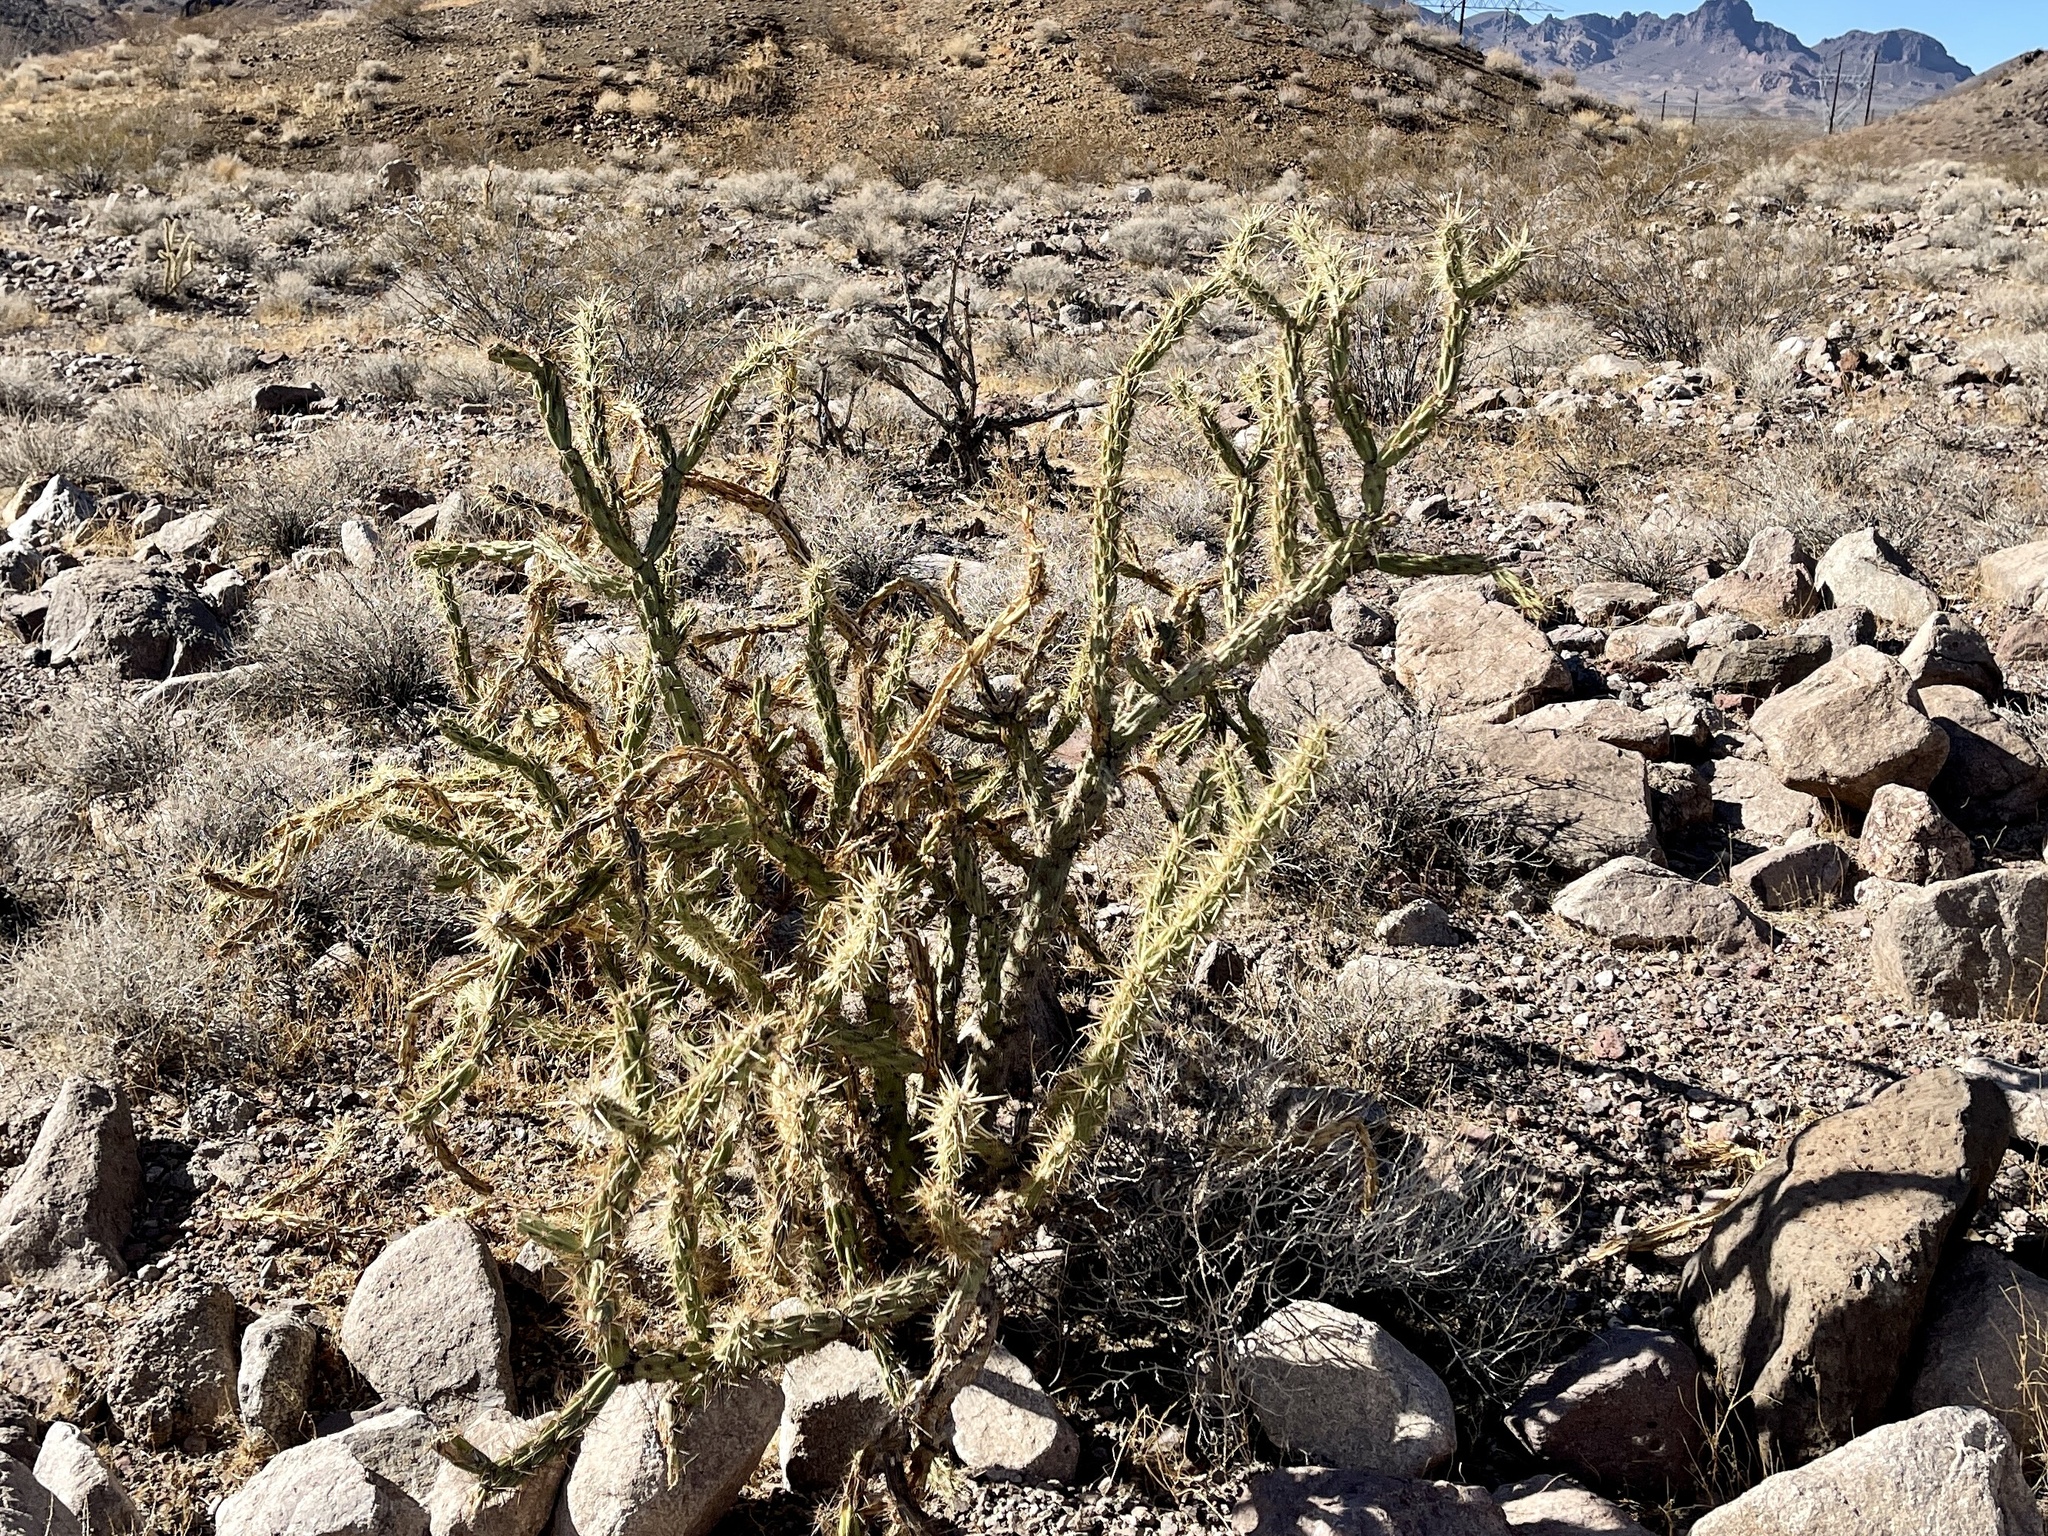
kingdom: Plantae
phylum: Tracheophyta
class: Magnoliopsida
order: Caryophyllales
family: Cactaceae
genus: Cylindropuntia
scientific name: Cylindropuntia acanthocarpa
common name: Buckhorn cholla
